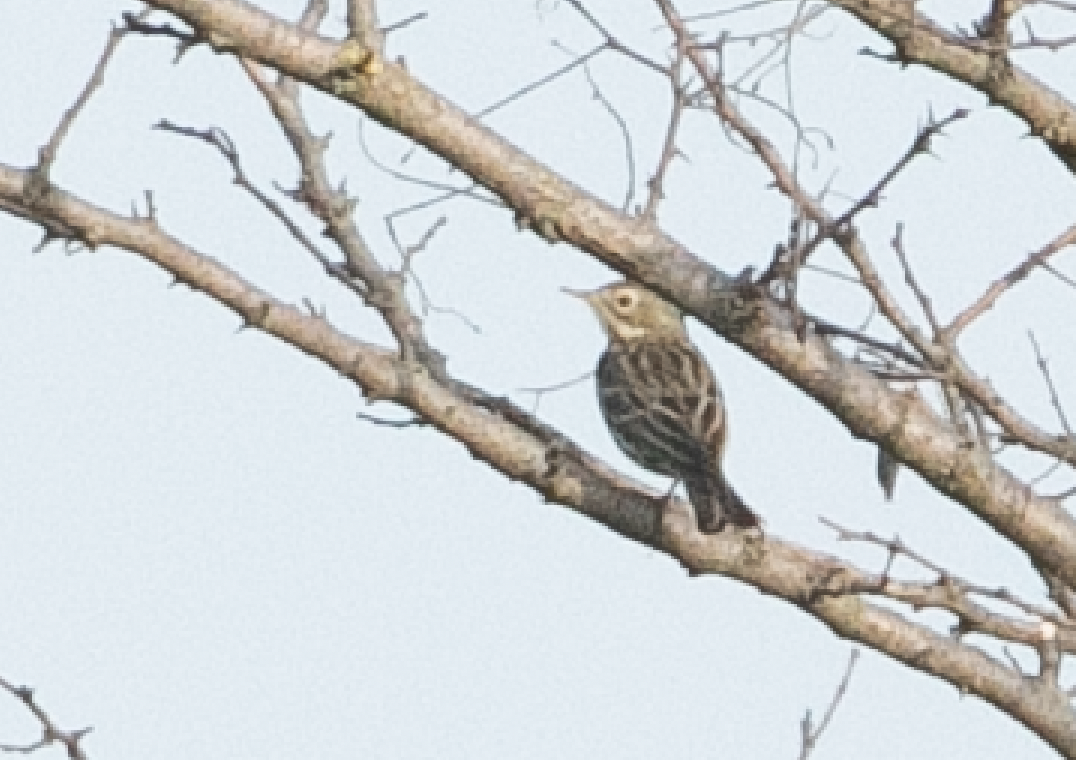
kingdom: Animalia
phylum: Chordata
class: Aves
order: Passeriformes
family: Motacillidae
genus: Anthus
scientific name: Anthus pratensis
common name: Meadow pipit
